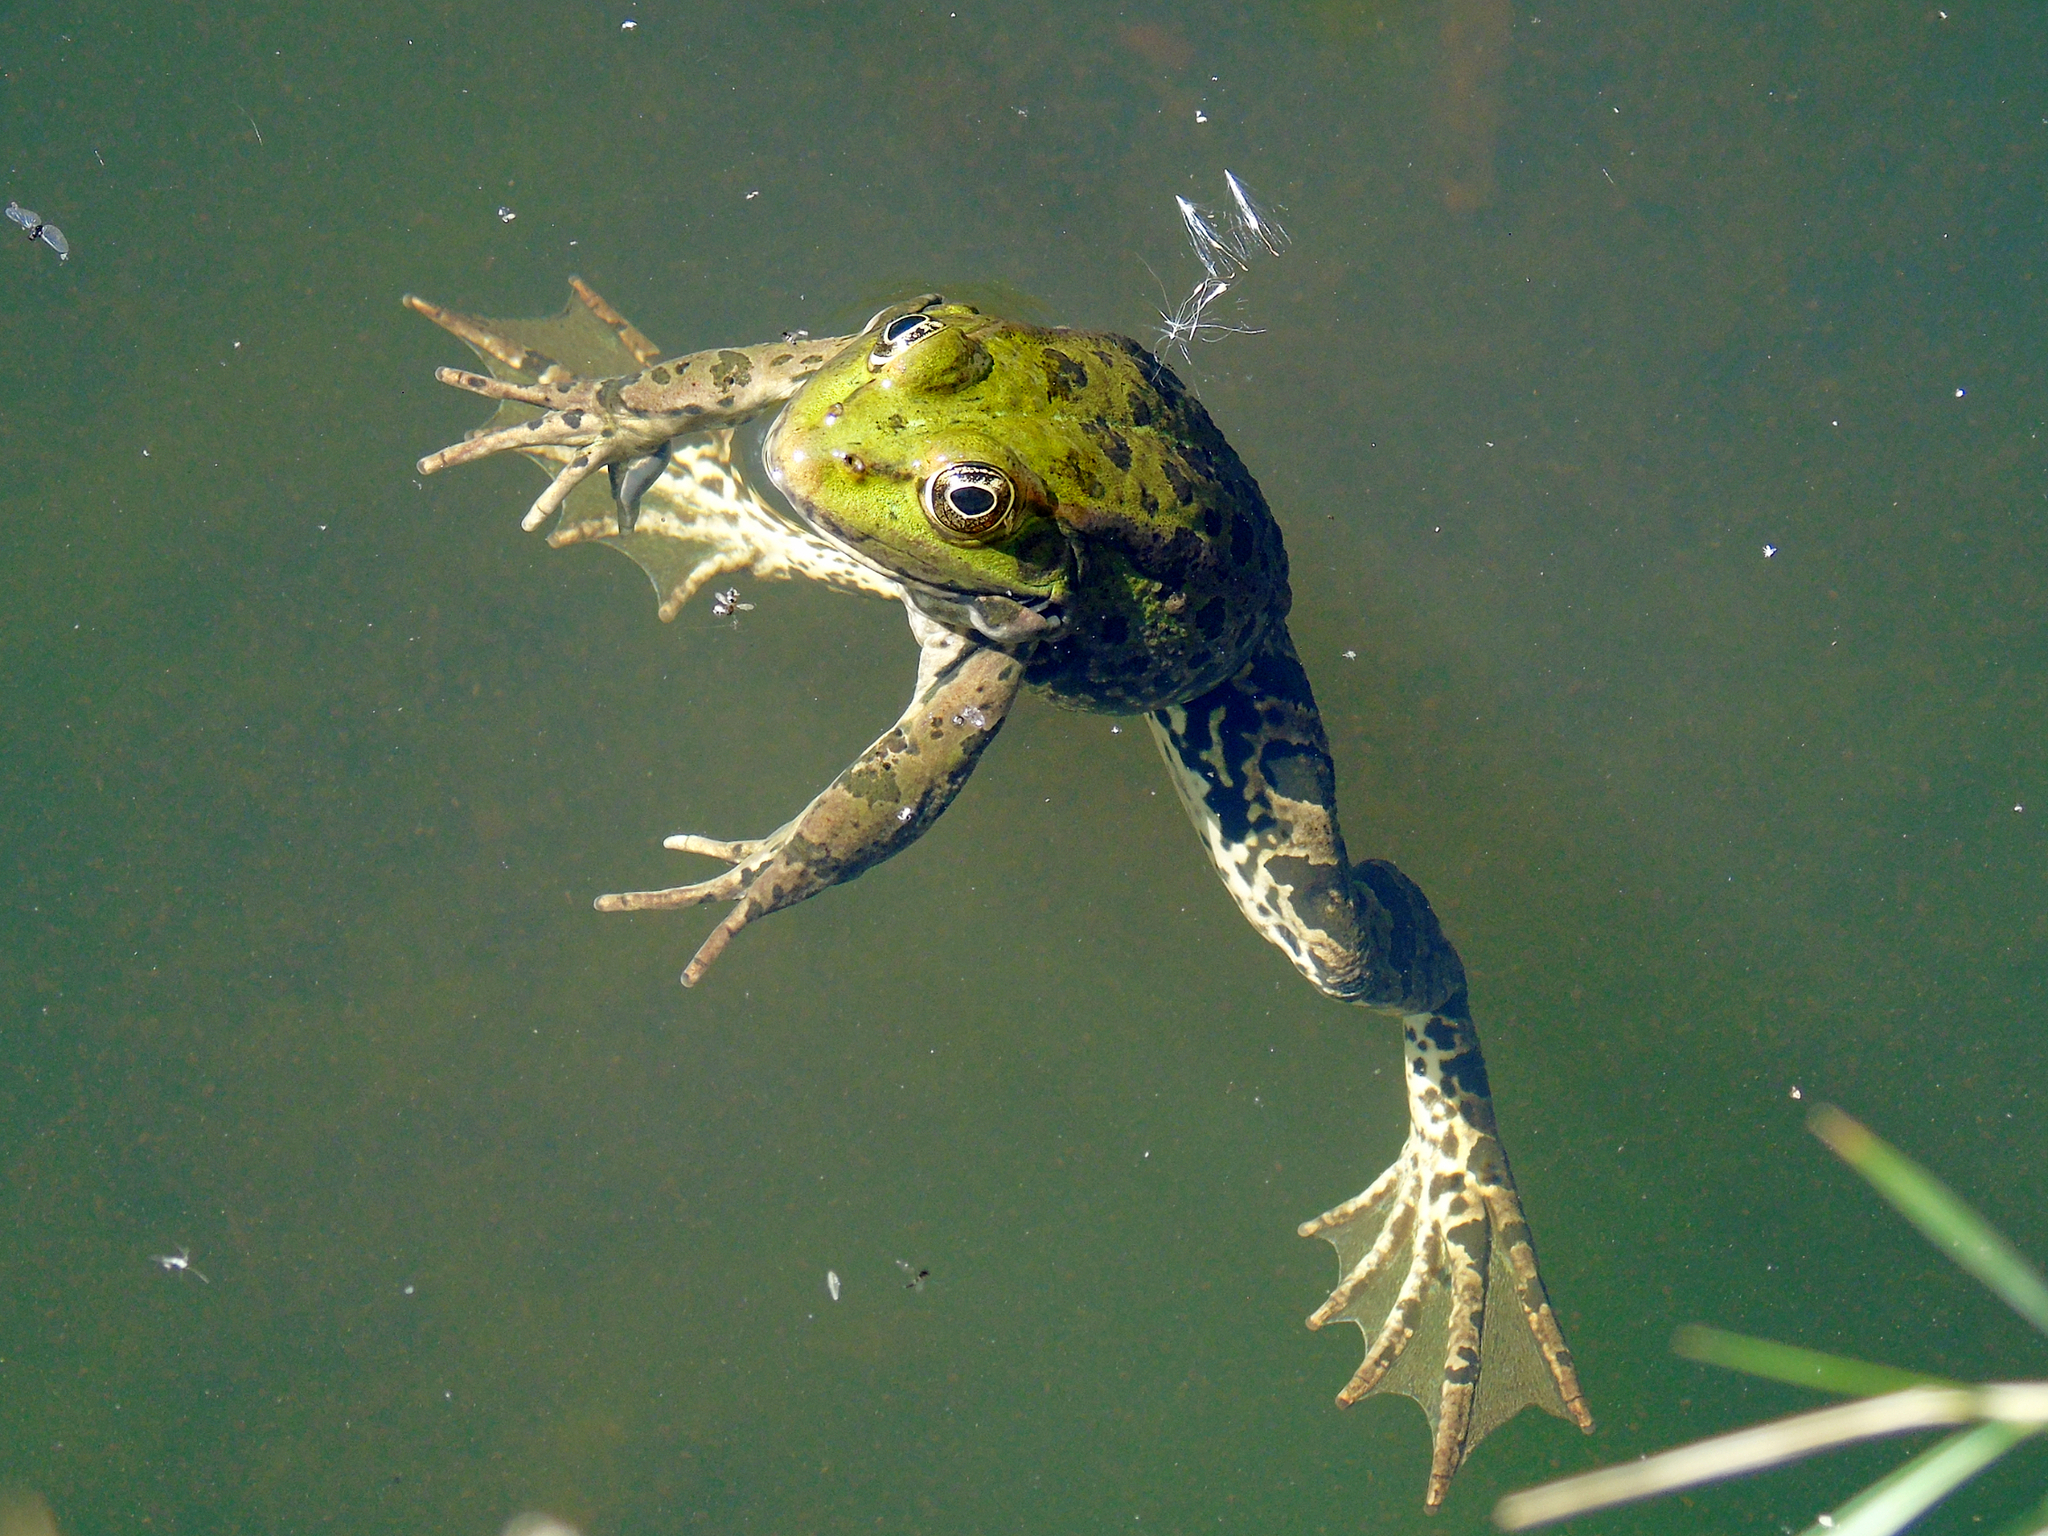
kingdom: Animalia
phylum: Chordata
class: Amphibia
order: Anura
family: Ranidae
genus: Pelophylax
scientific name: Pelophylax ridibundus
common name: Marsh frog
